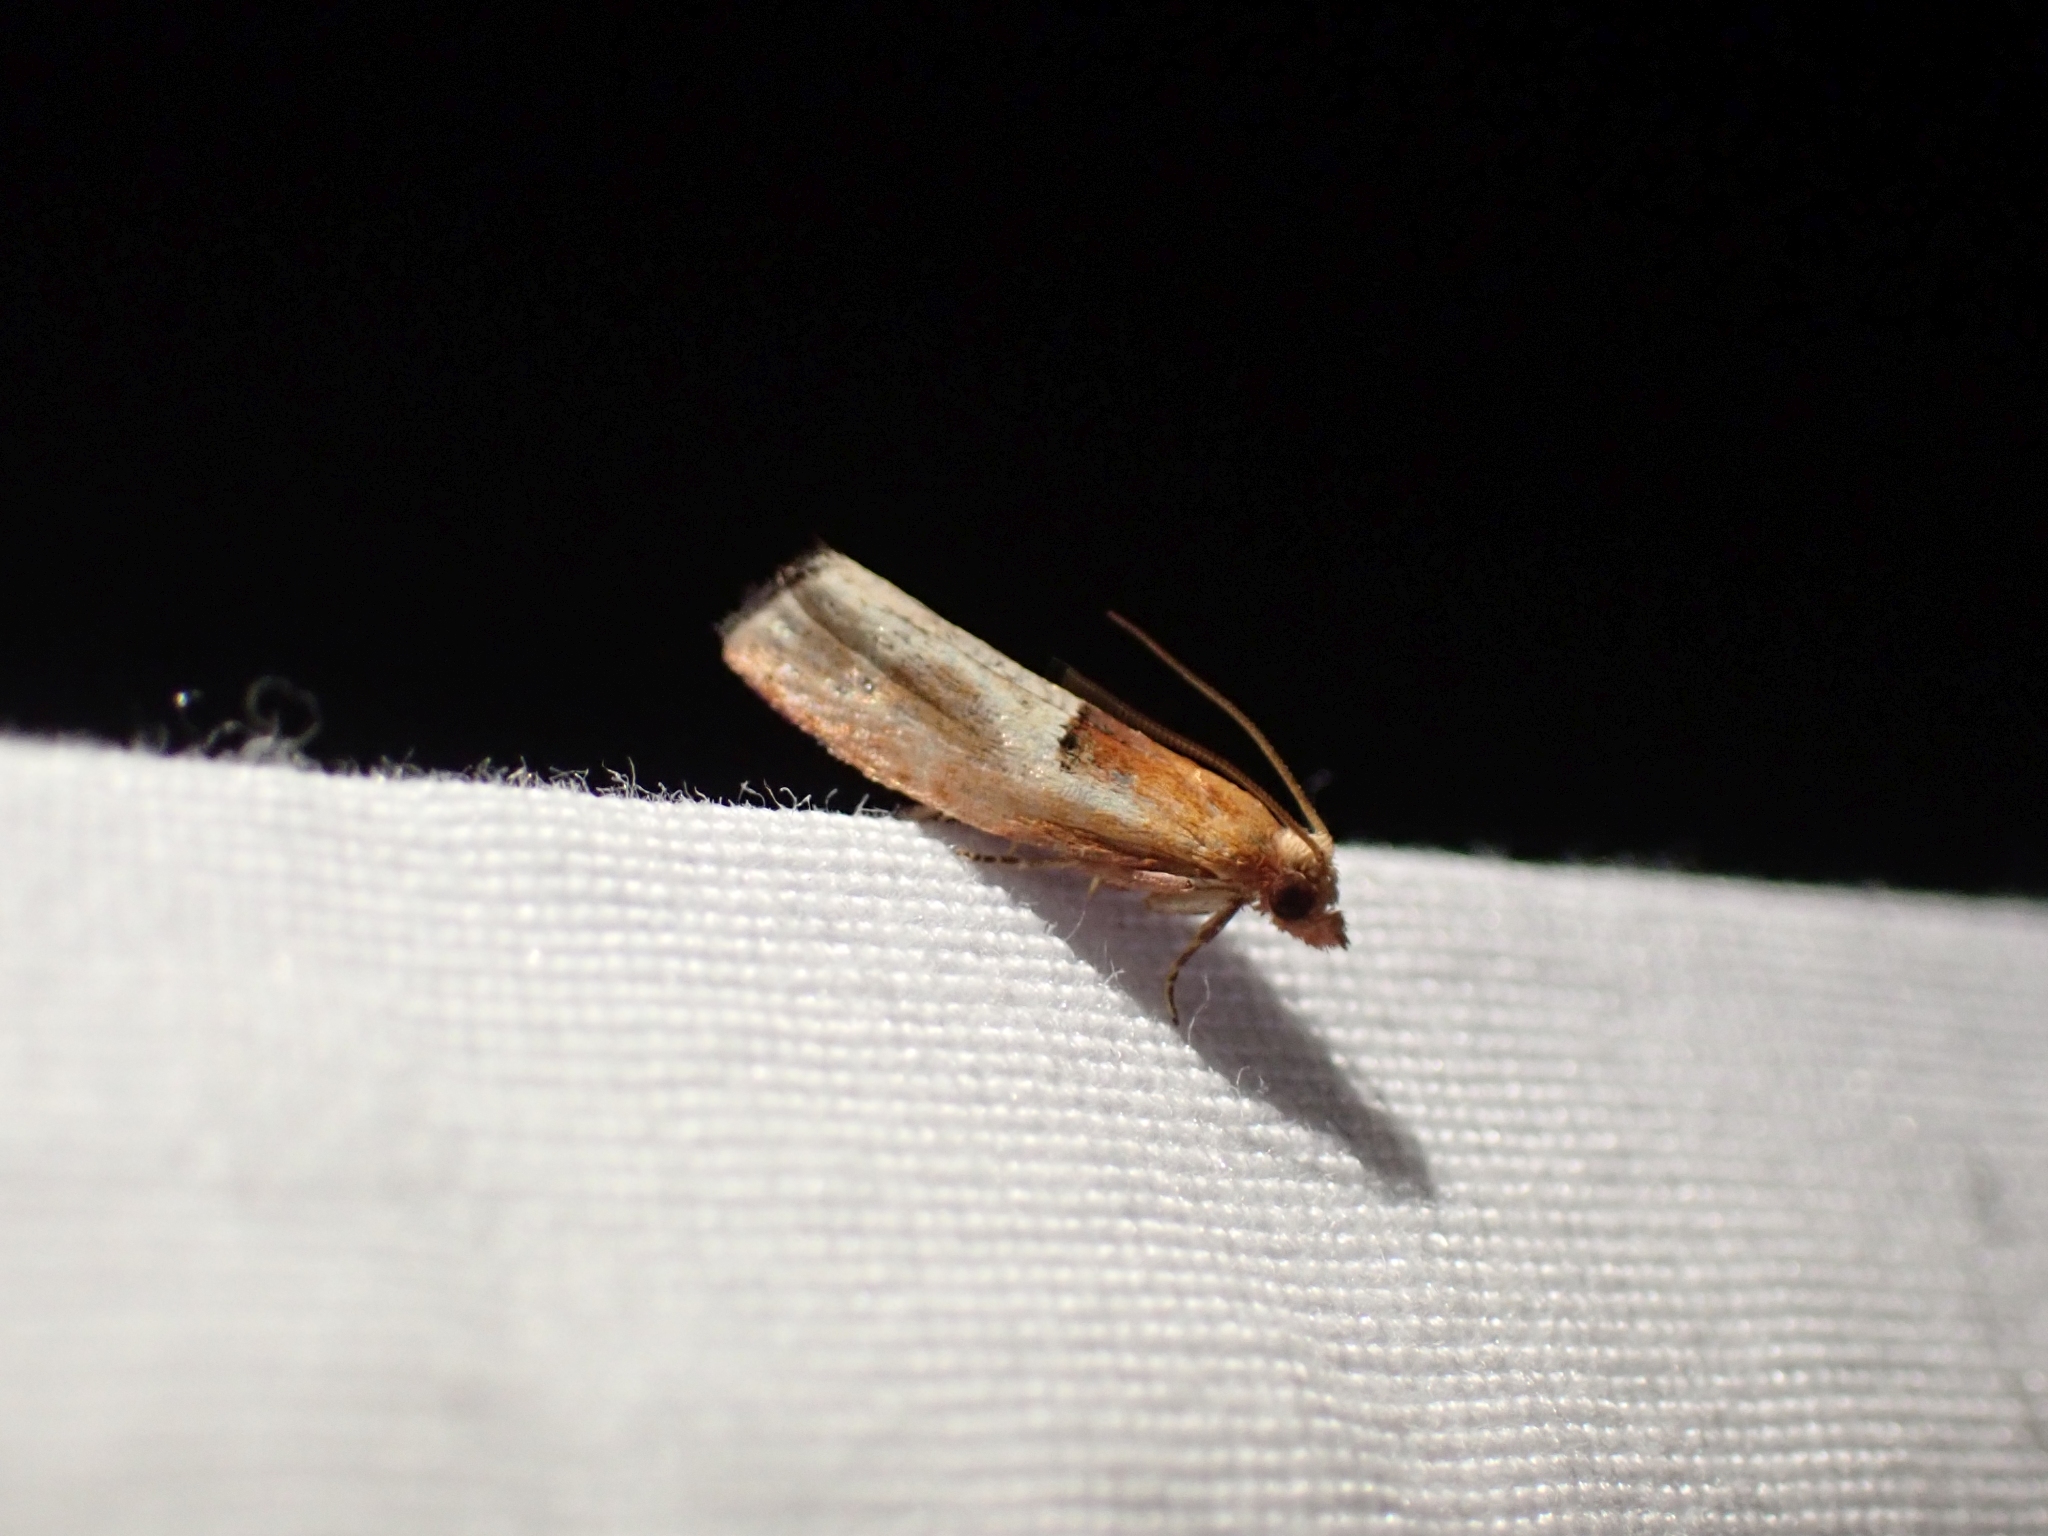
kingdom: Animalia
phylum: Arthropoda
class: Insecta
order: Lepidoptera
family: Tortricidae
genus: Epinotia
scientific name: Epinotia johnsonana
